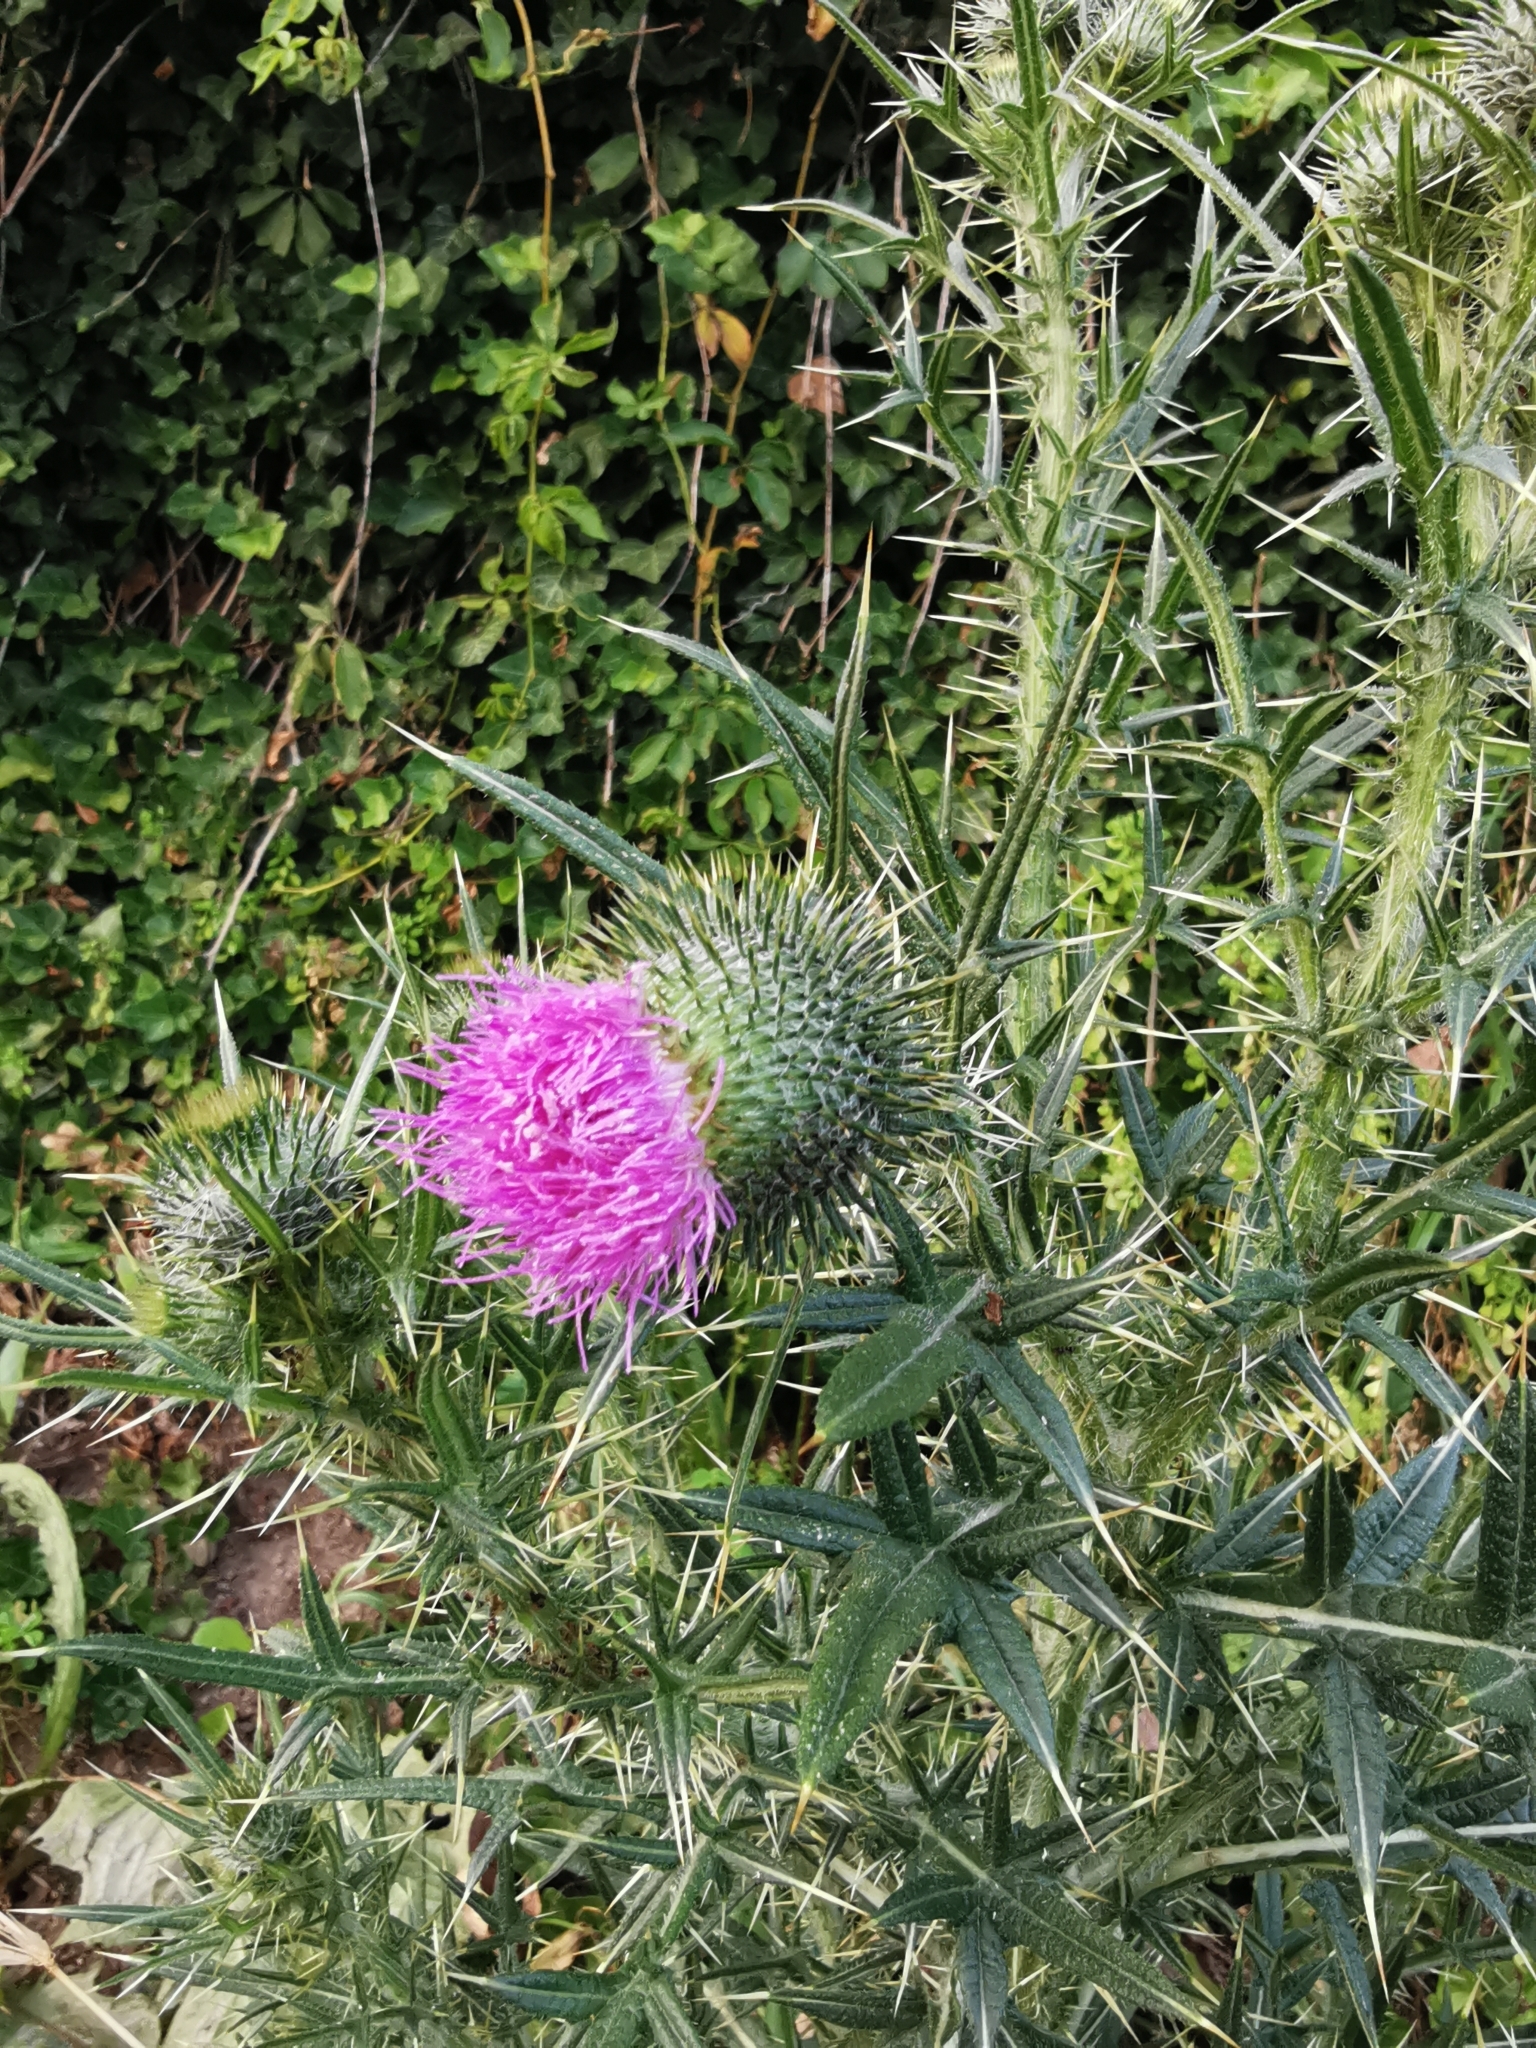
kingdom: Plantae
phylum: Tracheophyta
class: Magnoliopsida
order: Asterales
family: Asteraceae
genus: Cirsium
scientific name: Cirsium vulgare
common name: Bull thistle
